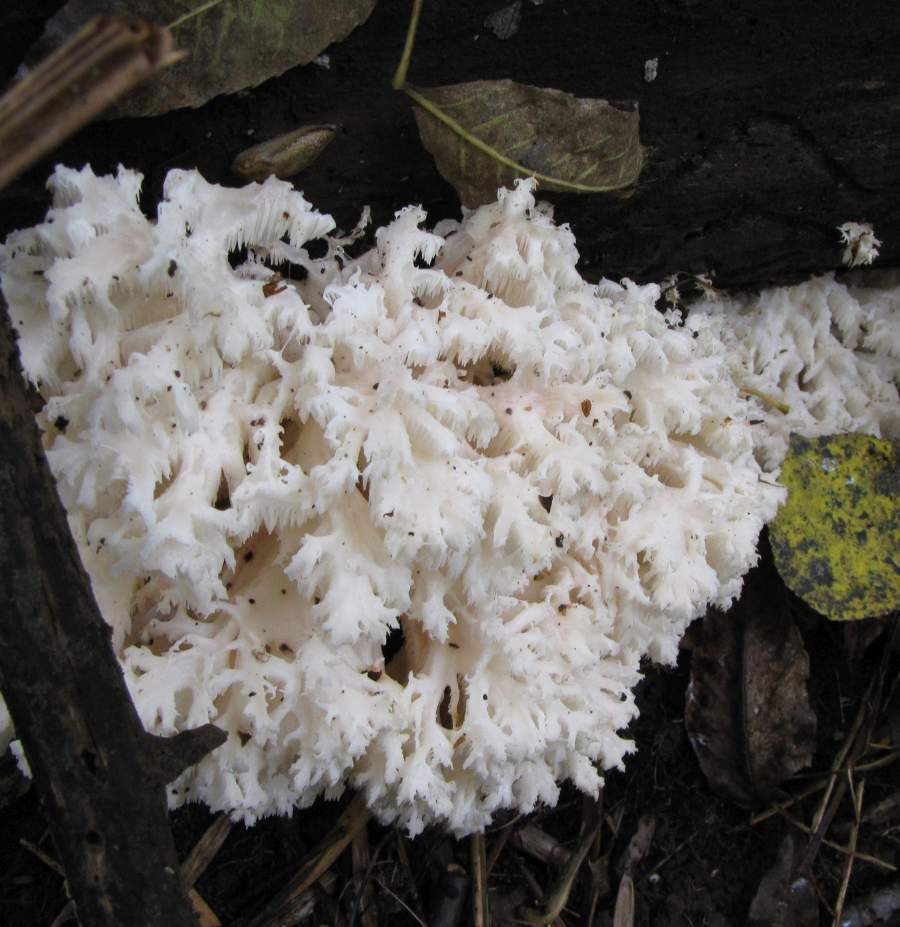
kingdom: Fungi
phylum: Basidiomycota
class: Agaricomycetes
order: Russulales
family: Hericiaceae
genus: Hericium
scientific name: Hericium coralloides
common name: Coral tooth
